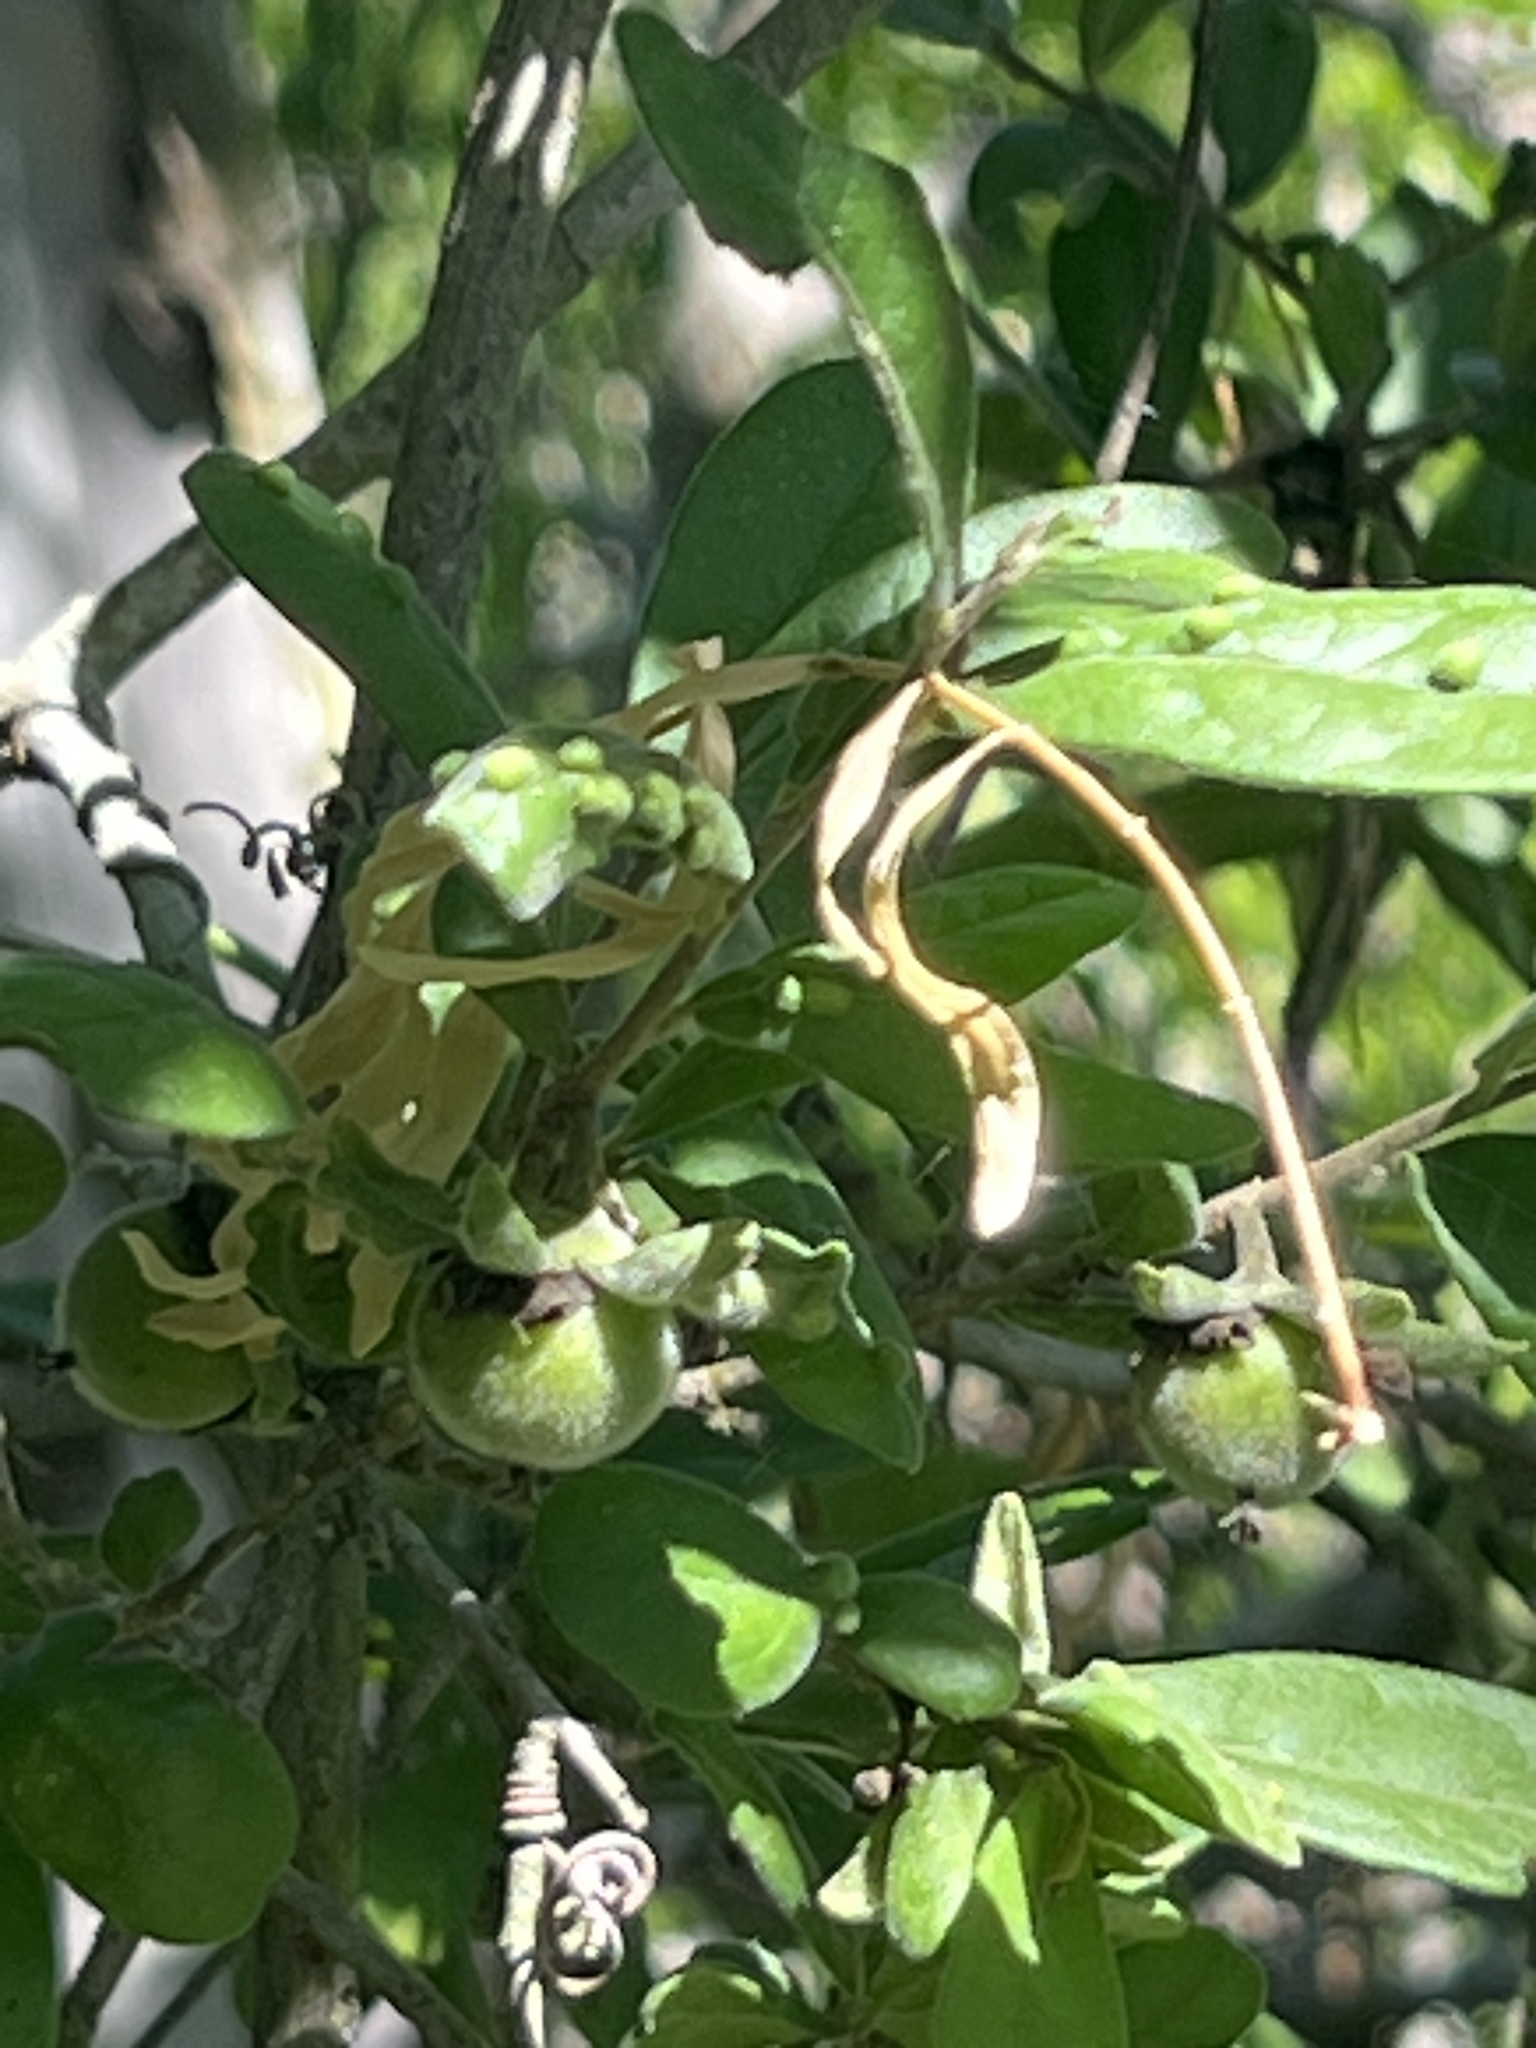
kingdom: Plantae
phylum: Tracheophyta
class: Magnoliopsida
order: Ericales
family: Ebenaceae
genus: Diospyros
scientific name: Diospyros texana
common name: Texas persimmon
